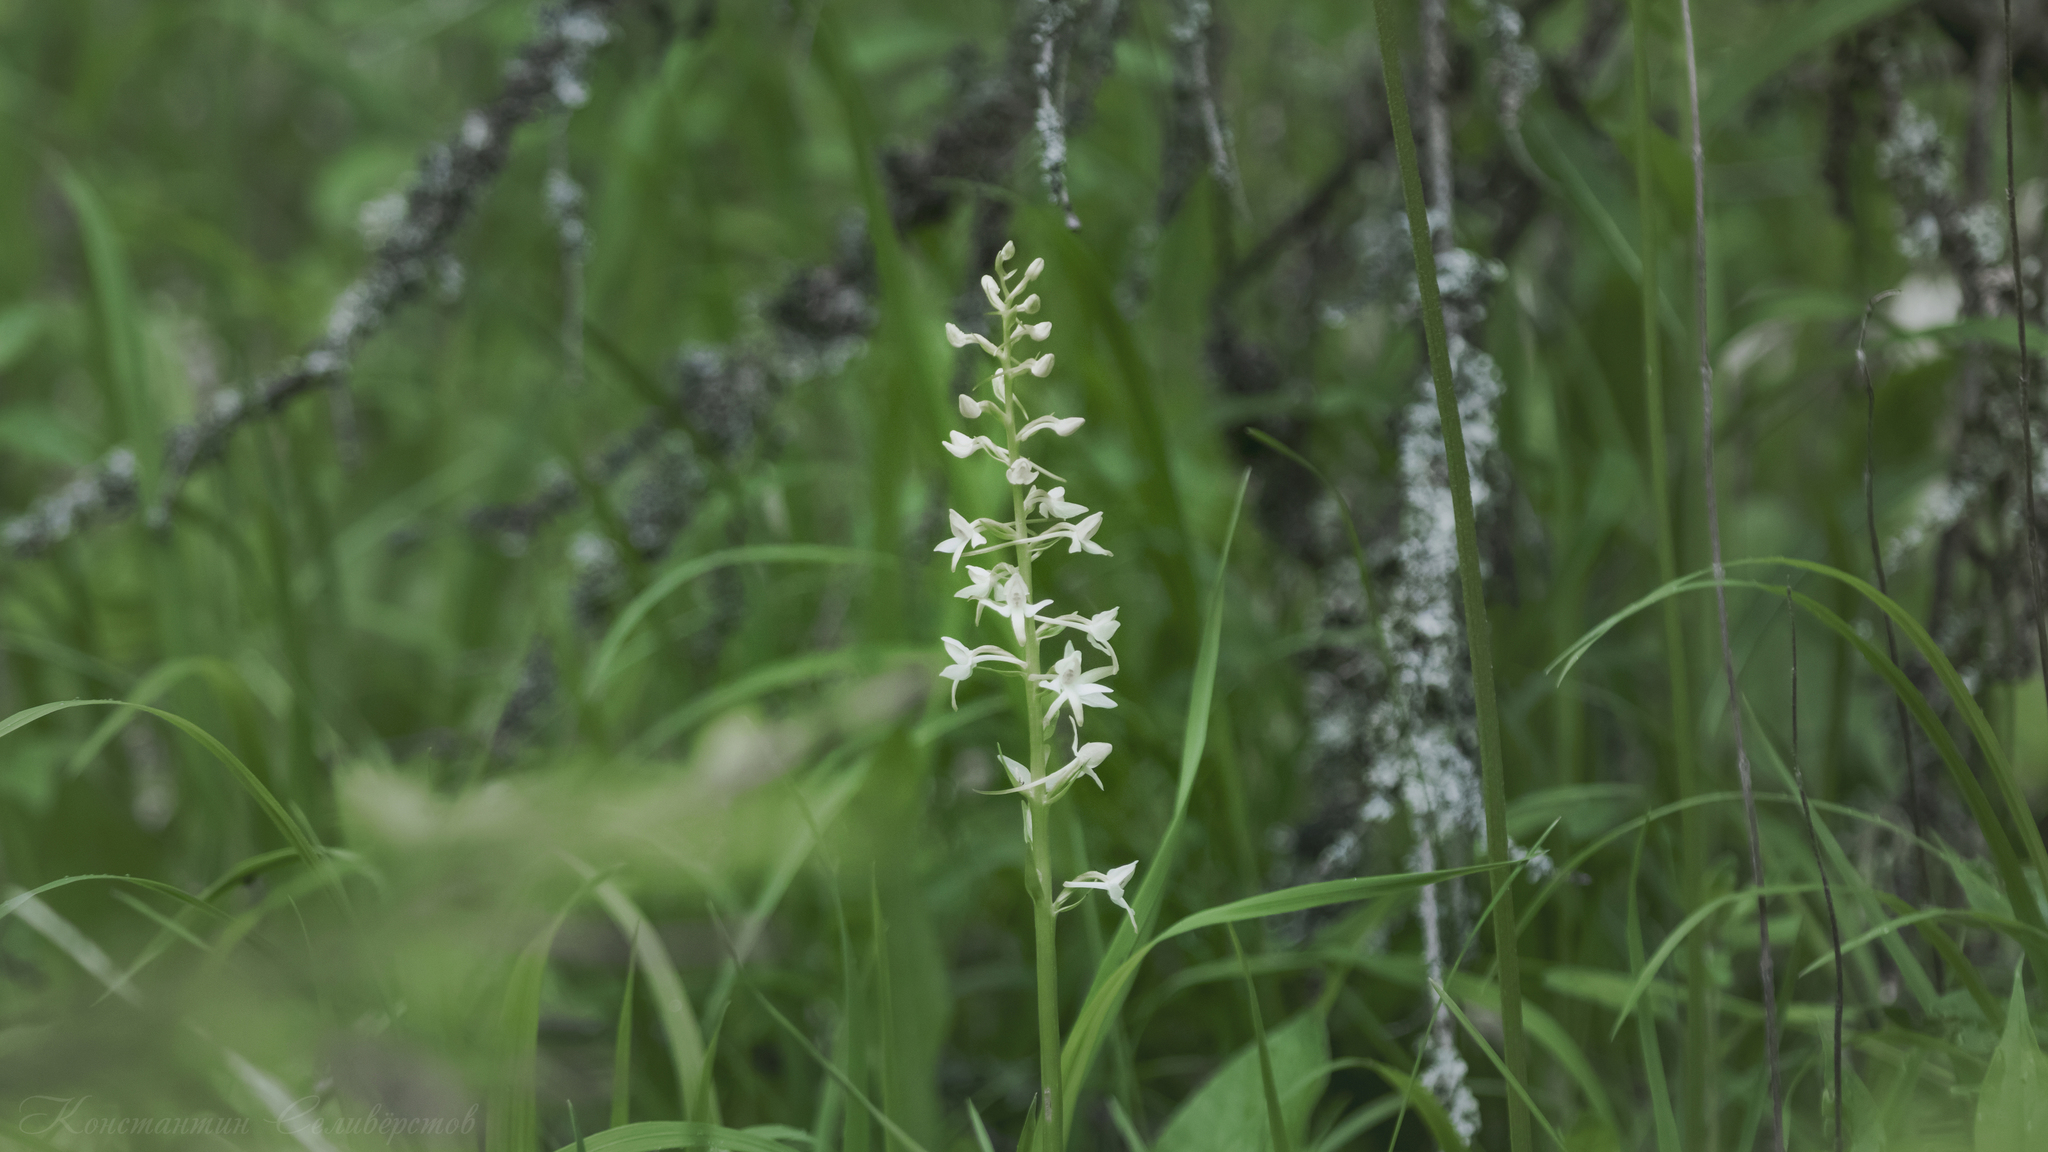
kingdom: Plantae
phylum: Tracheophyta
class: Liliopsida
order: Asparagales
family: Orchidaceae
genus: Platanthera
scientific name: Platanthera bifolia
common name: Lesser butterfly-orchid
